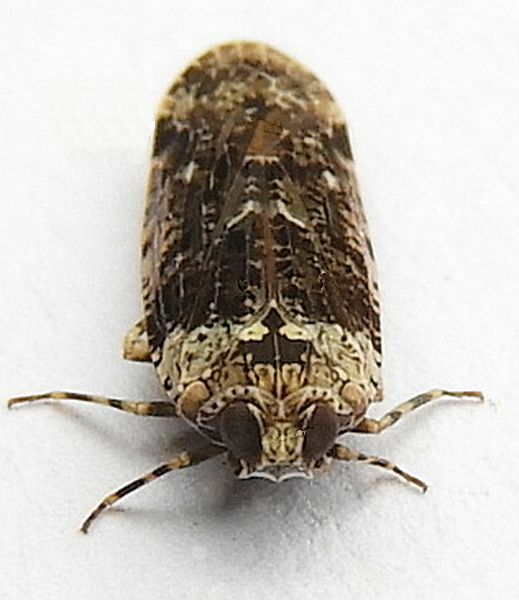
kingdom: Animalia
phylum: Arthropoda
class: Insecta
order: Hemiptera
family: Achilidae
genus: Catonia
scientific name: Catonia nava
